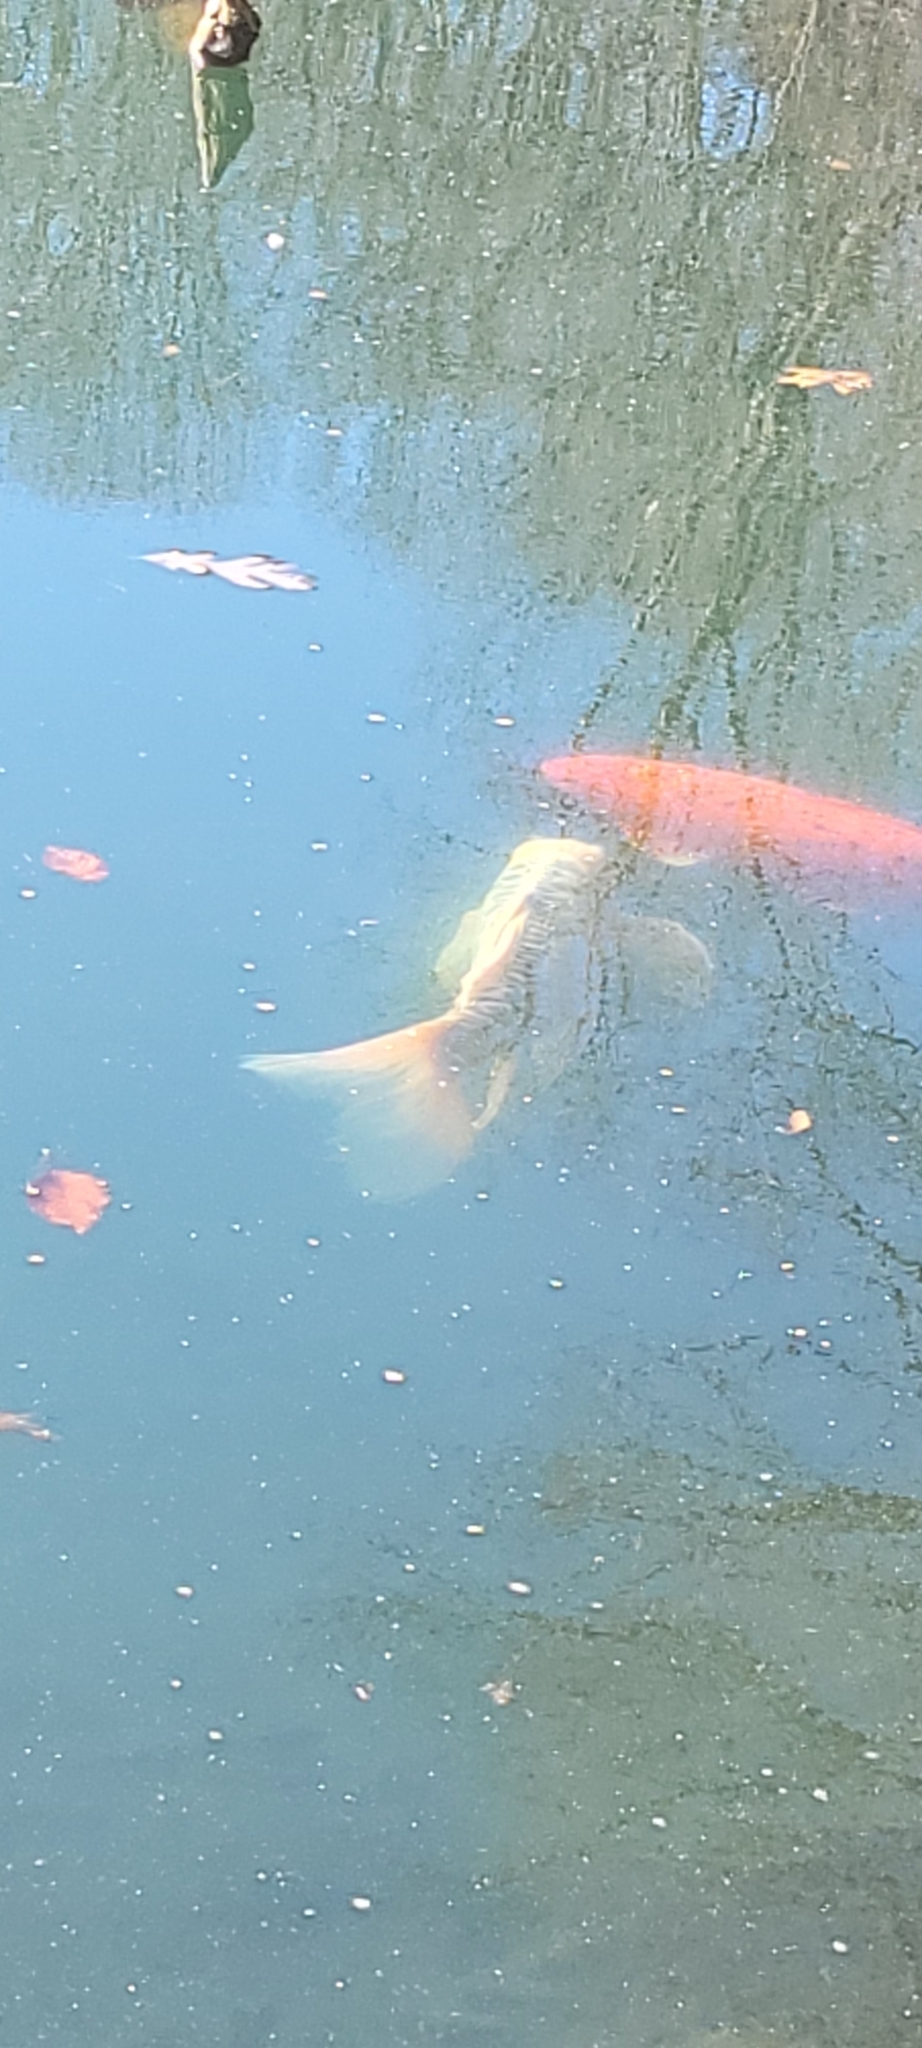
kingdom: Animalia
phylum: Chordata
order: Cypriniformes
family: Cyprinidae
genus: Cyprinus
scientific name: Cyprinus rubrofuscus
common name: Koi
